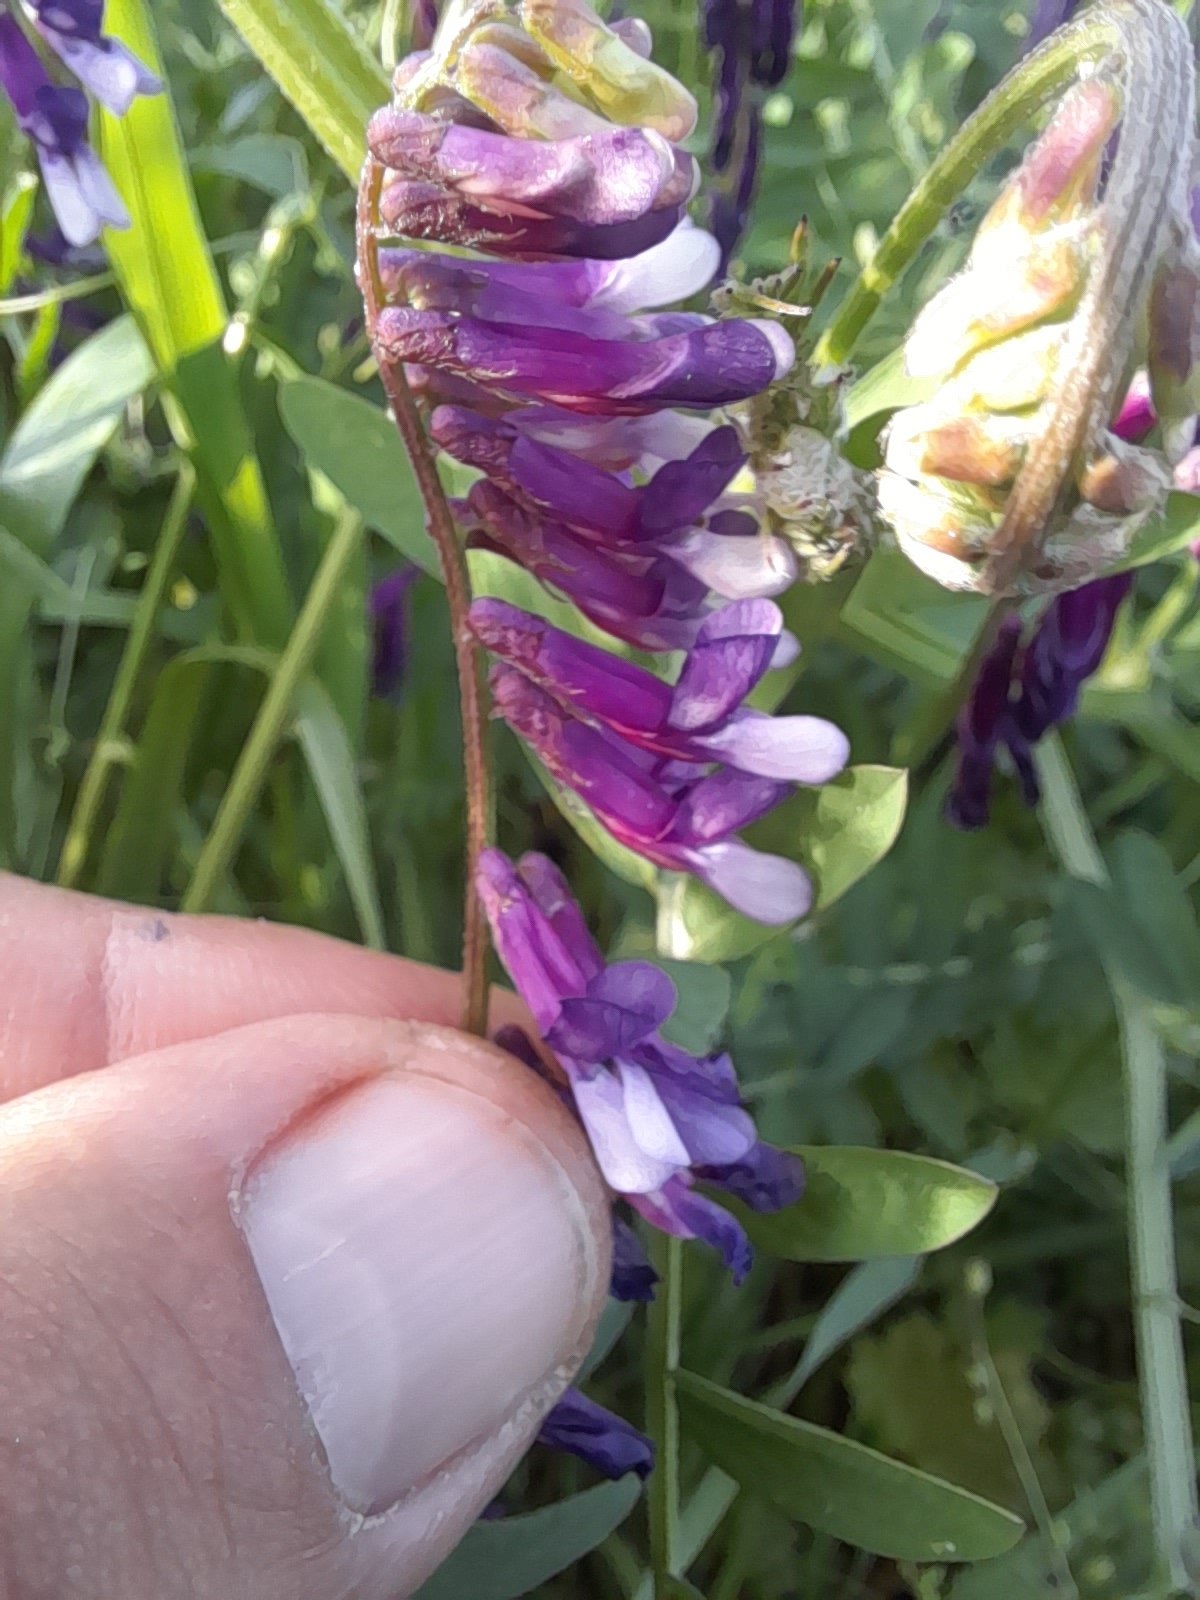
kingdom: Plantae
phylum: Tracheophyta
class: Magnoliopsida
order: Fabales
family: Fabaceae
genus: Vicia
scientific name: Vicia villosa
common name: Fodder vetch
